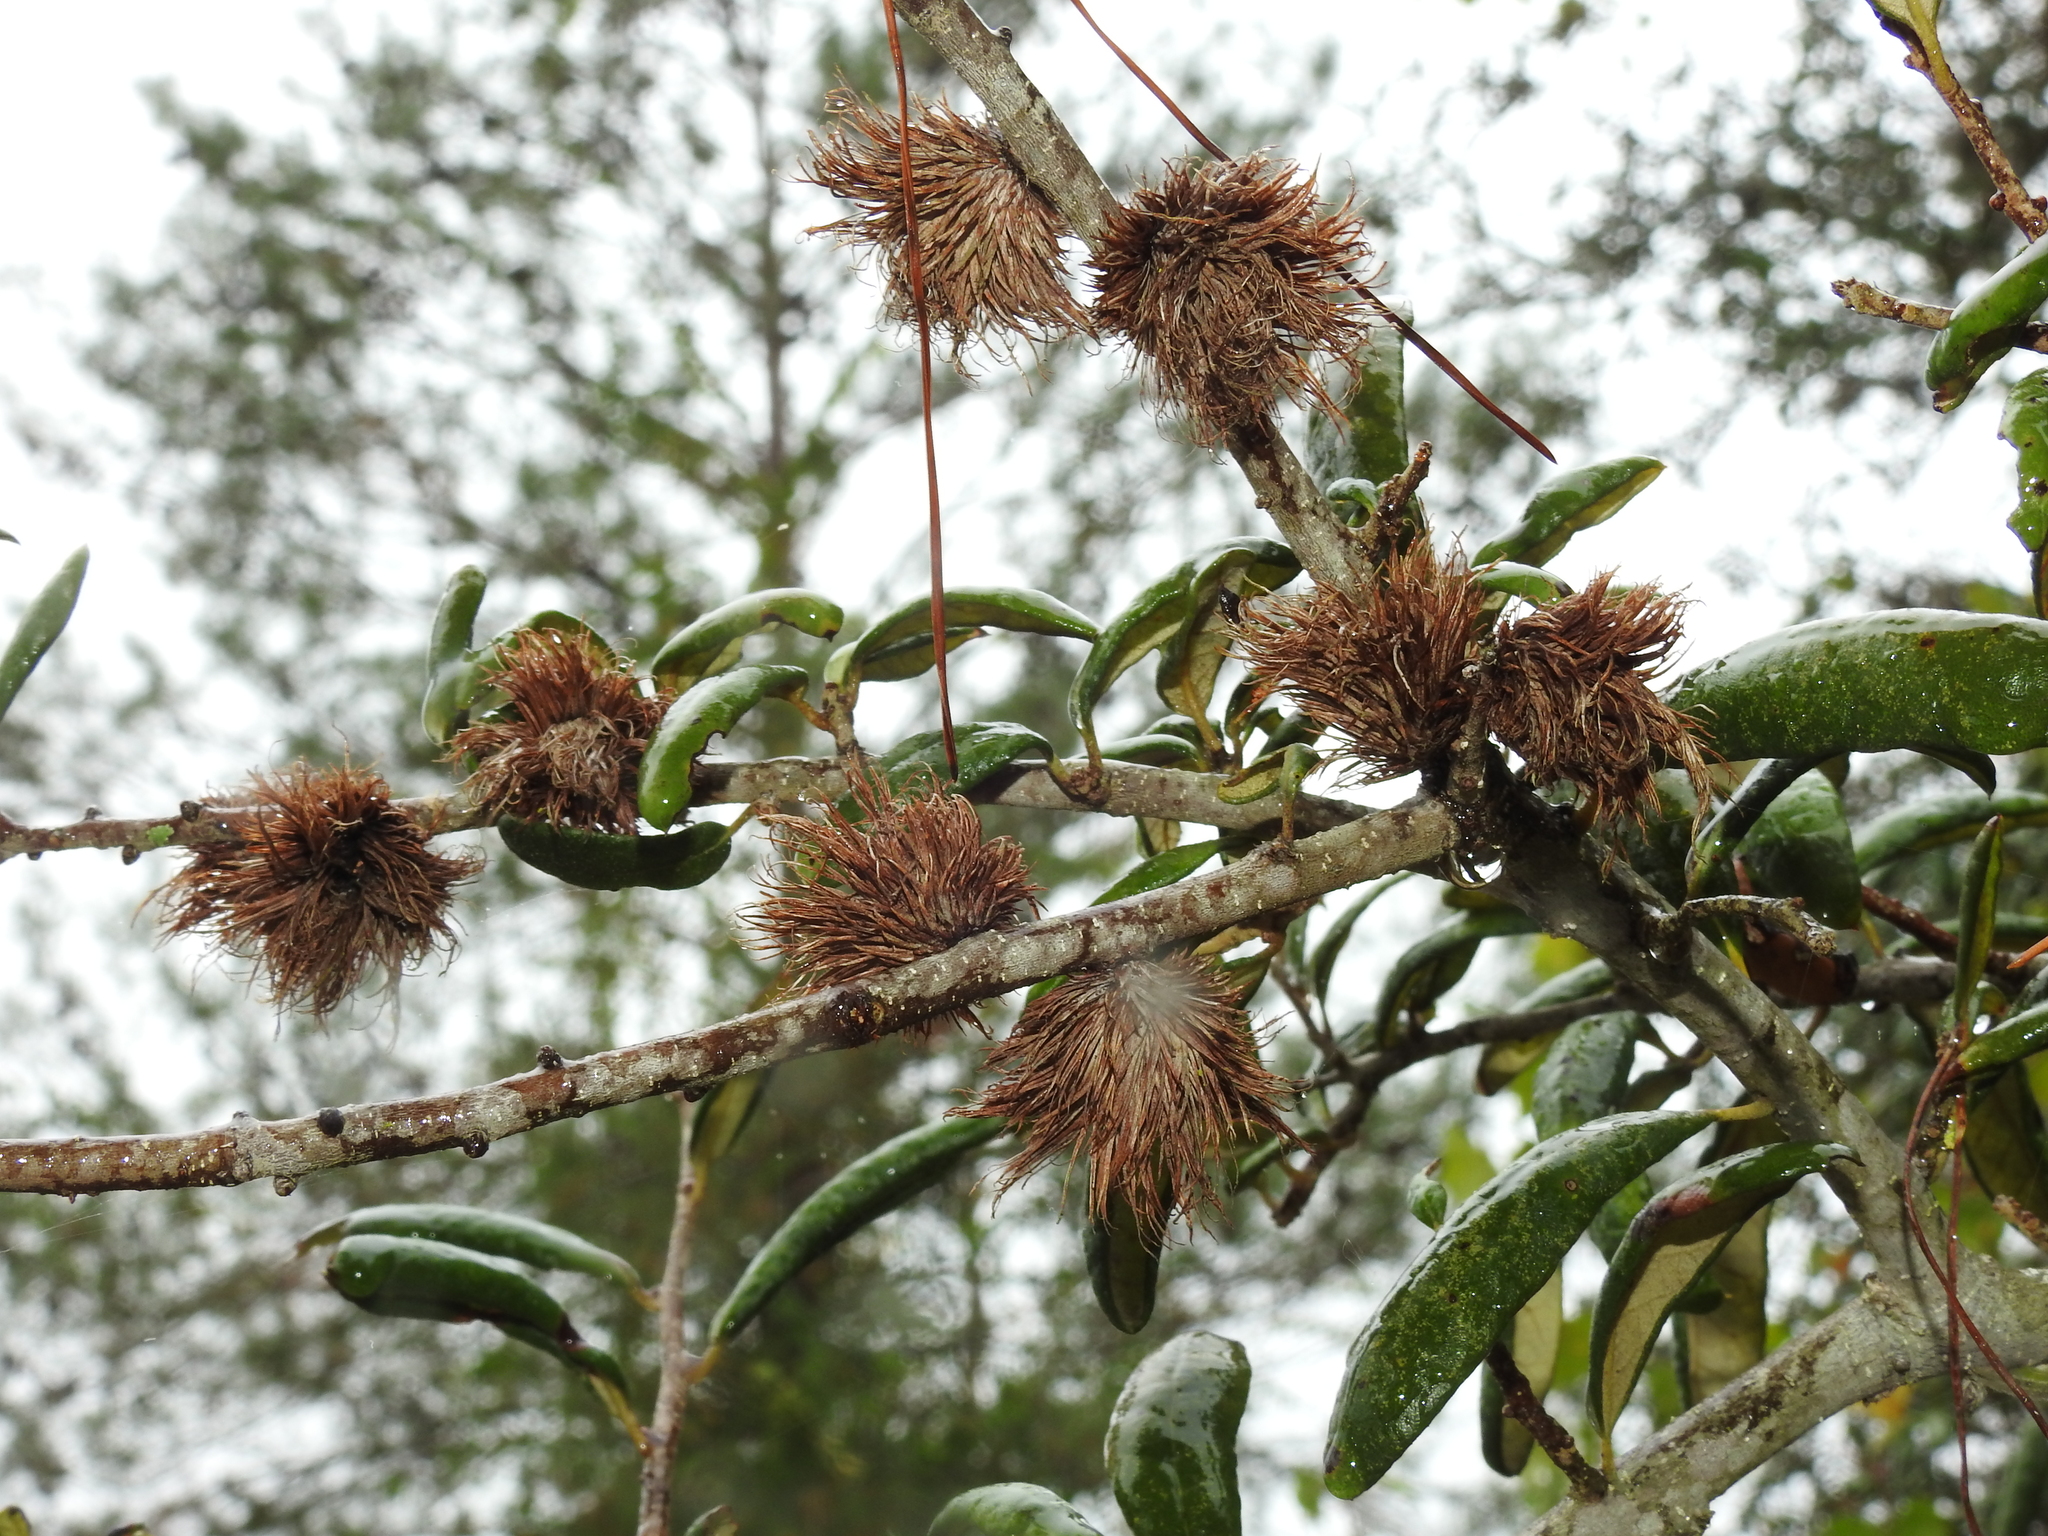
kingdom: Animalia
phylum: Arthropoda
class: Insecta
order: Hymenoptera
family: Cynipidae
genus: Andricus
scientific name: Andricus quercusfoliatus
